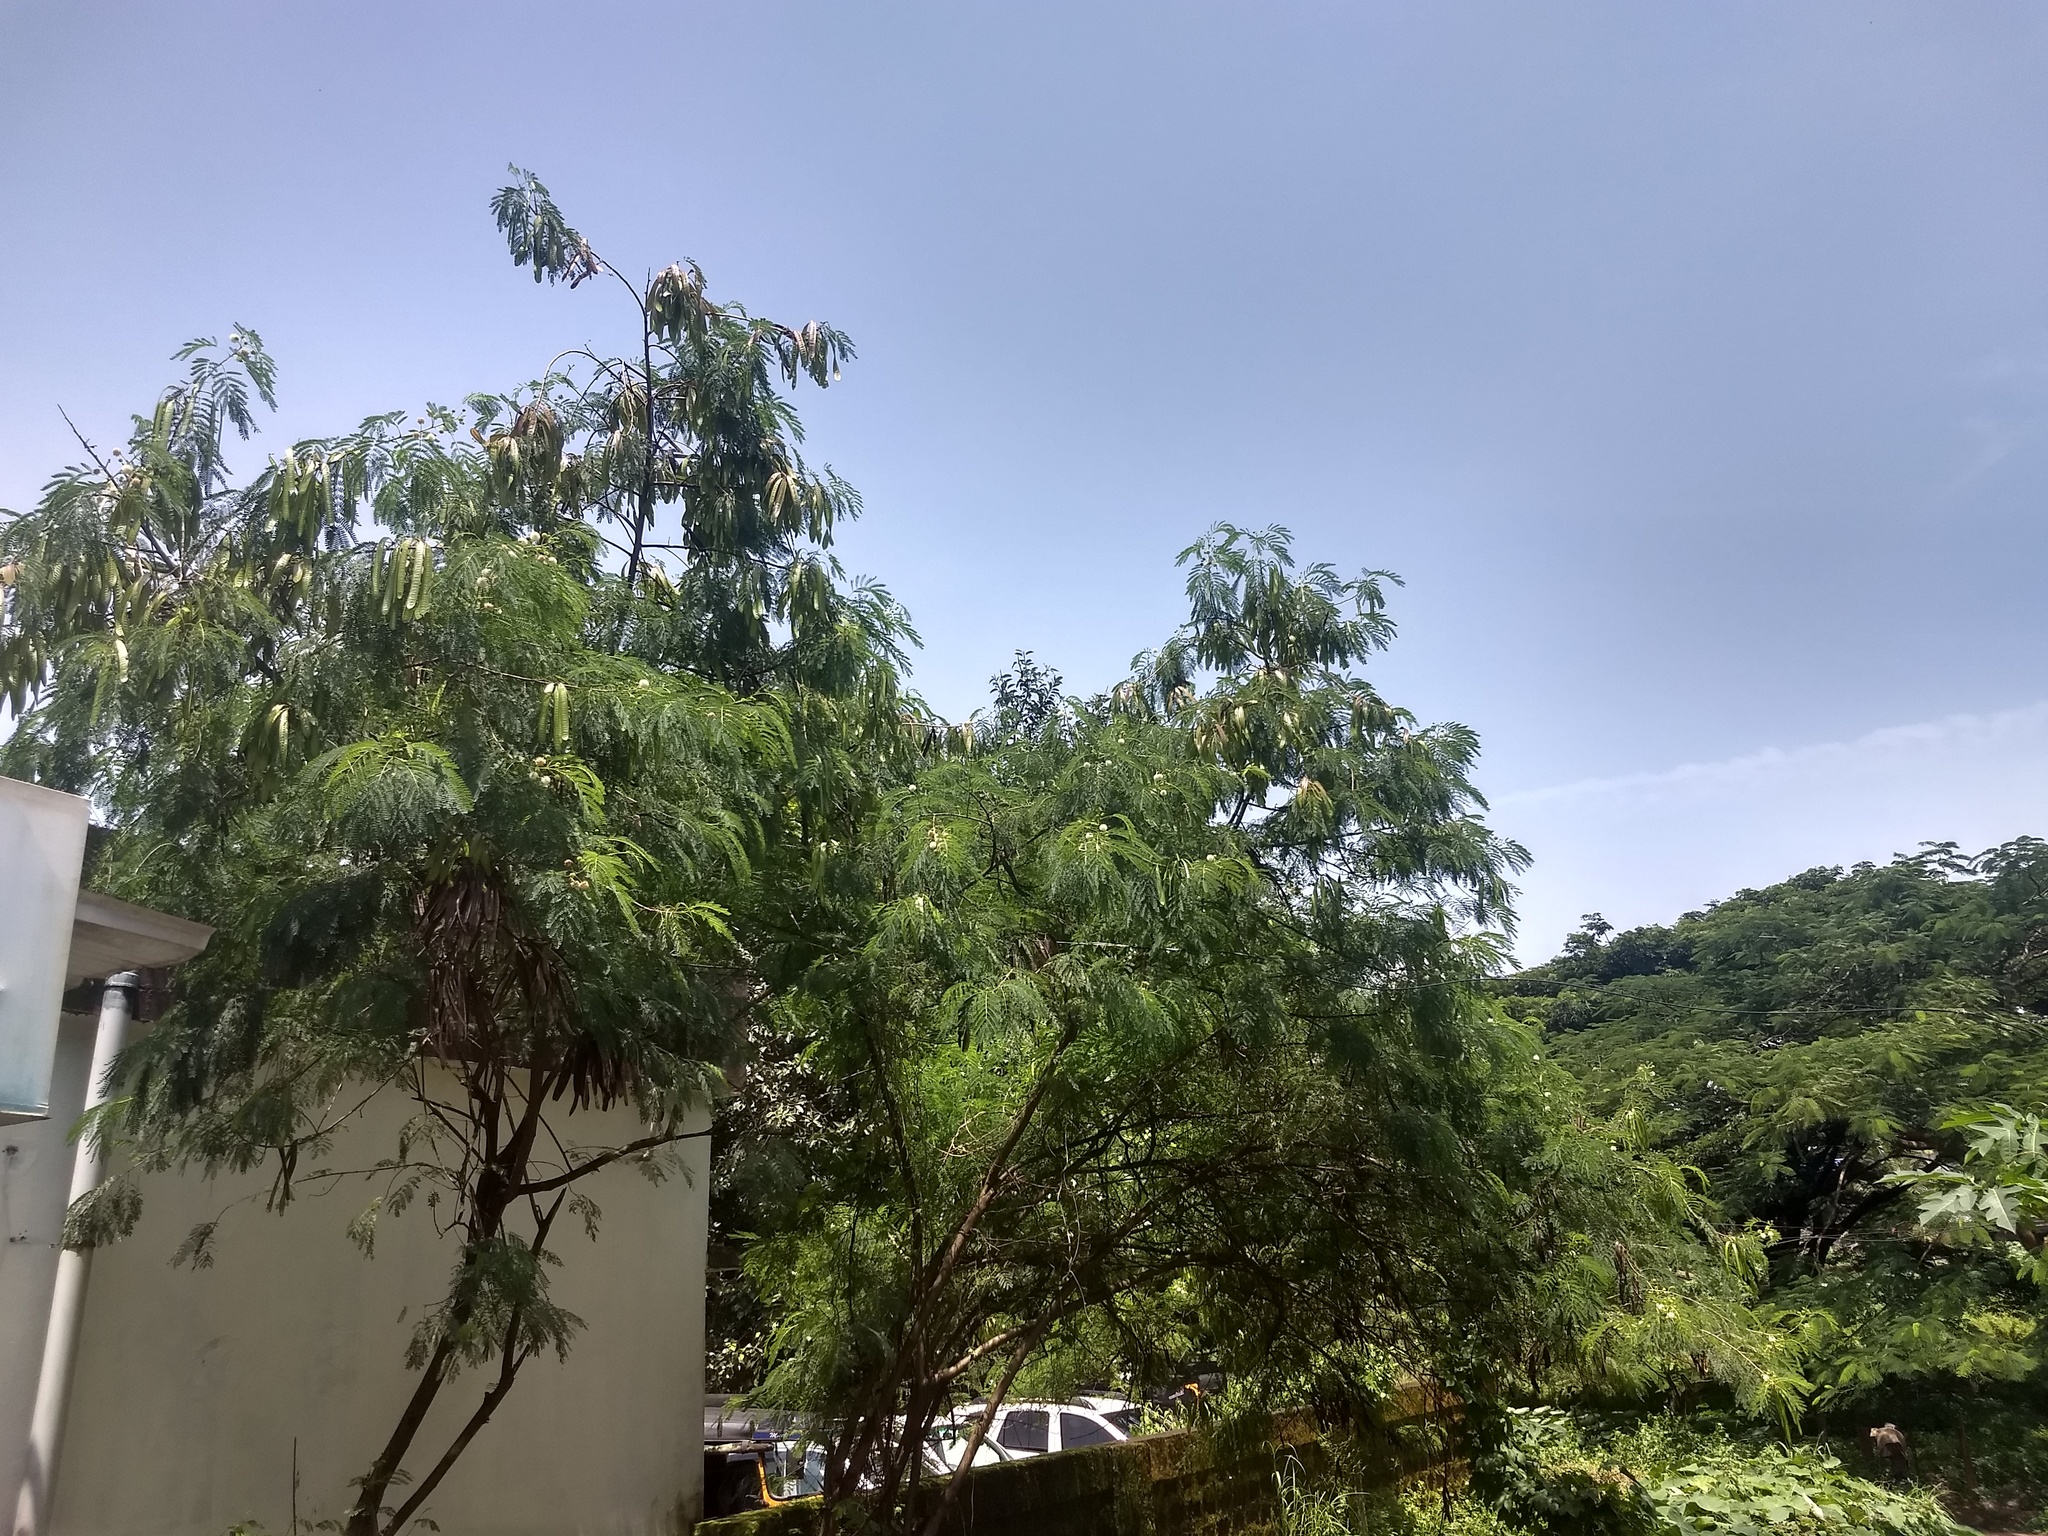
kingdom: Plantae
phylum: Tracheophyta
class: Magnoliopsida
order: Fabales
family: Fabaceae
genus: Leucaena
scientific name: Leucaena leucocephala
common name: White leadtree
